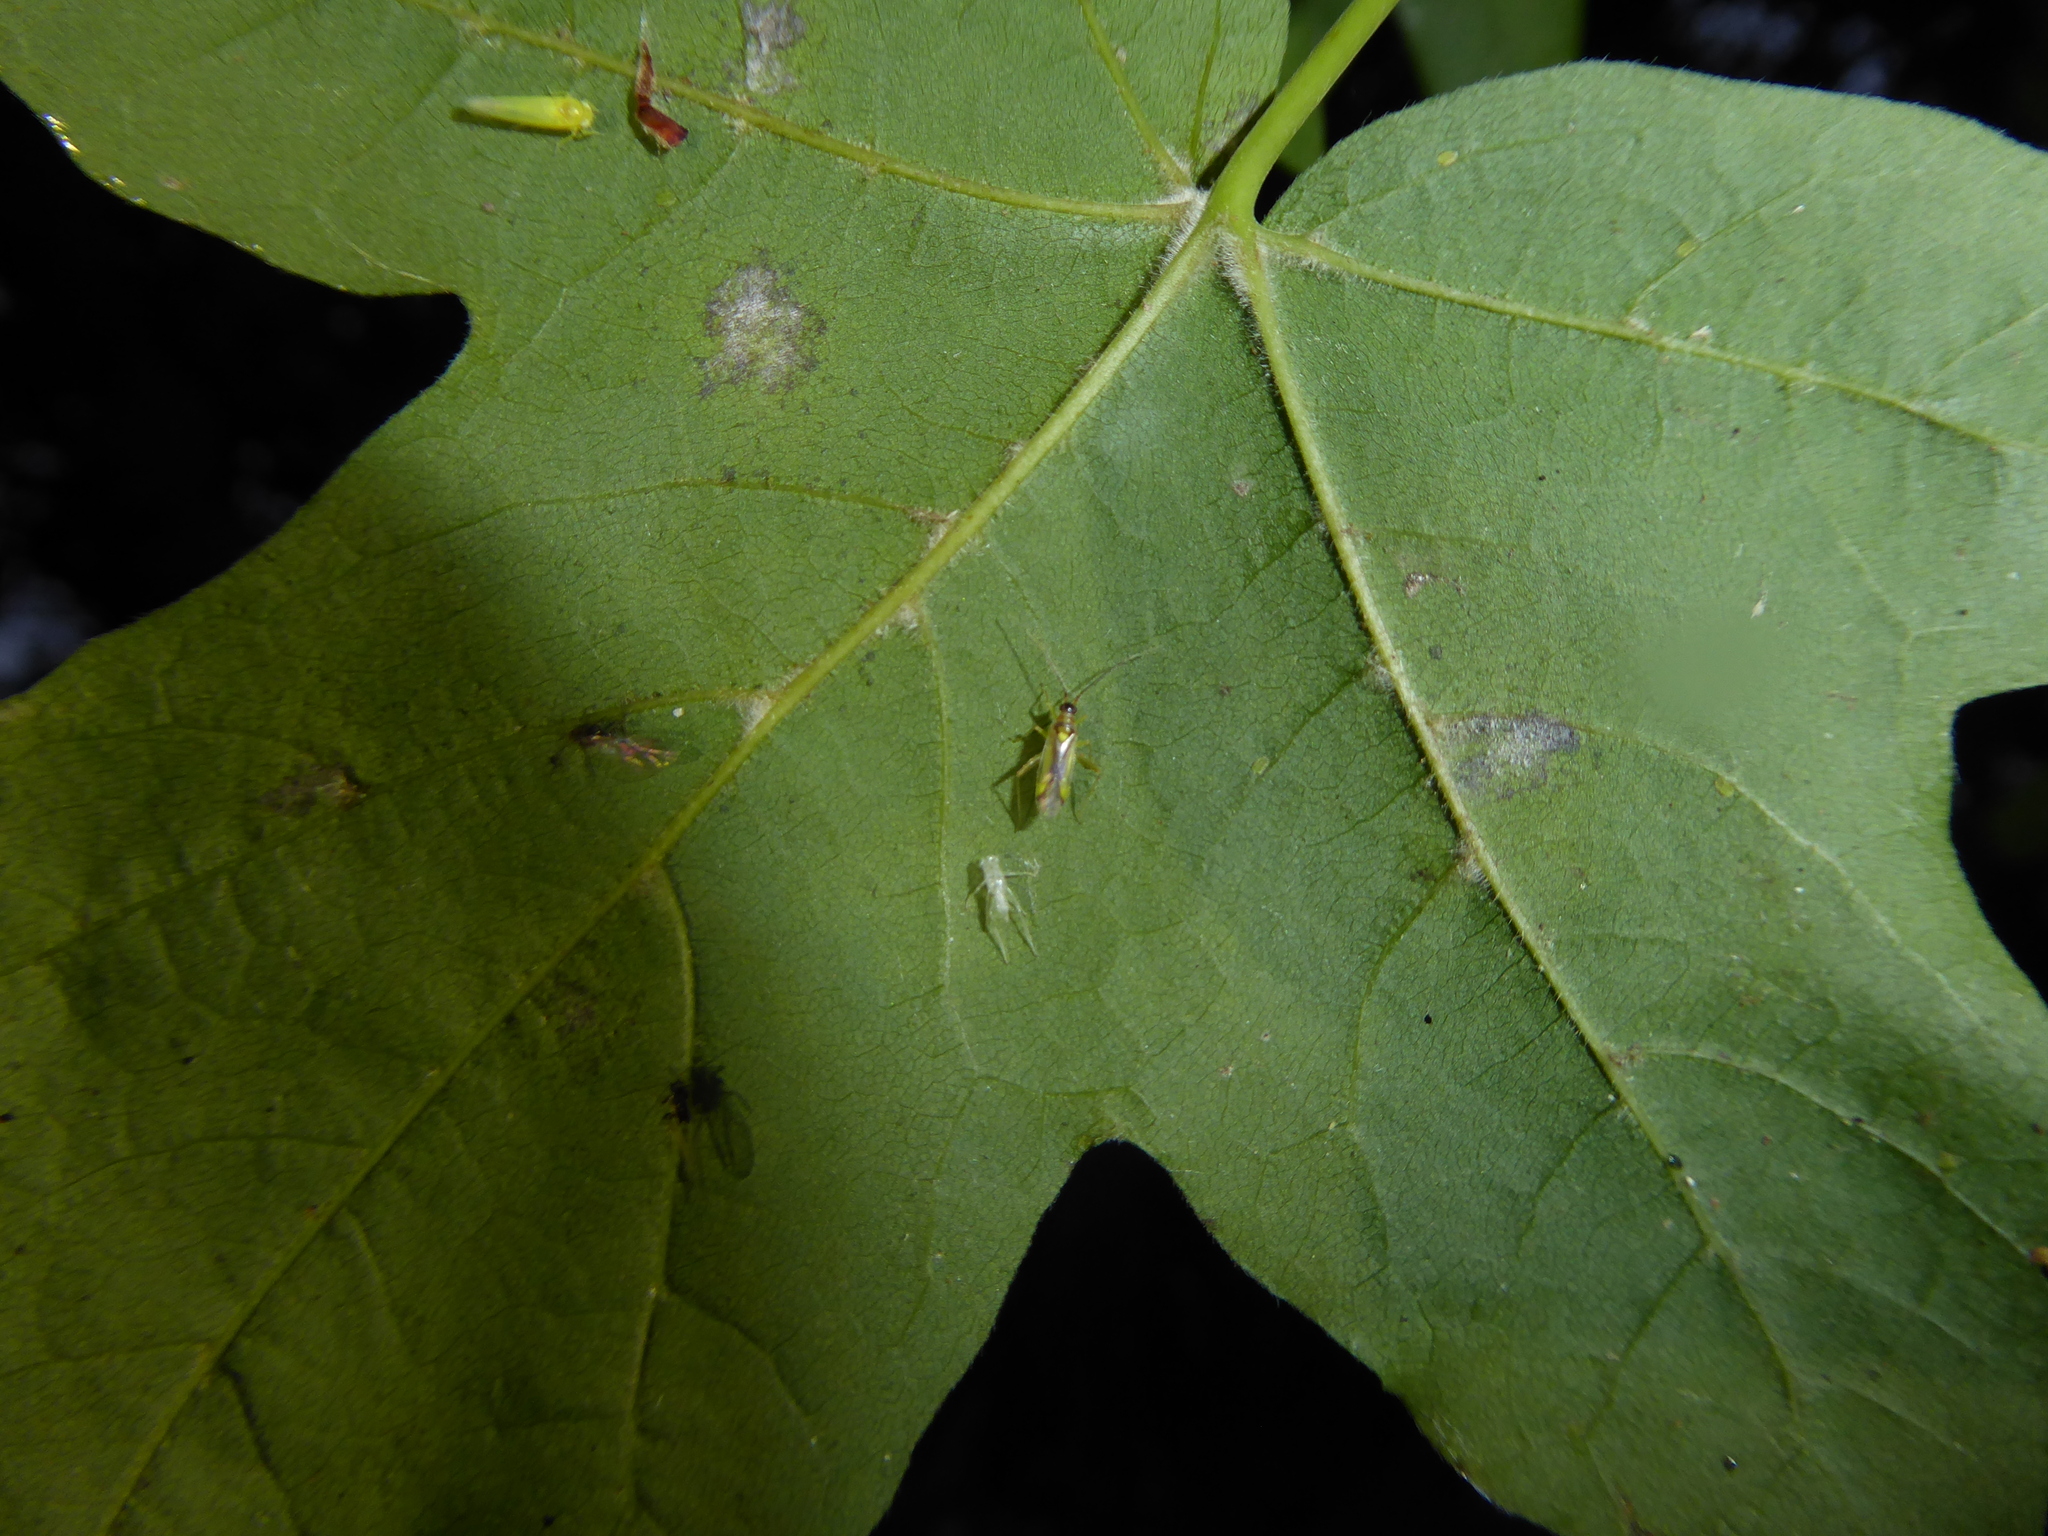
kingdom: Animalia
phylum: Arthropoda
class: Insecta
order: Hemiptera
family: Miridae
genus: Campyloneura
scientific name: Campyloneura virgula
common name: Predatory bug
